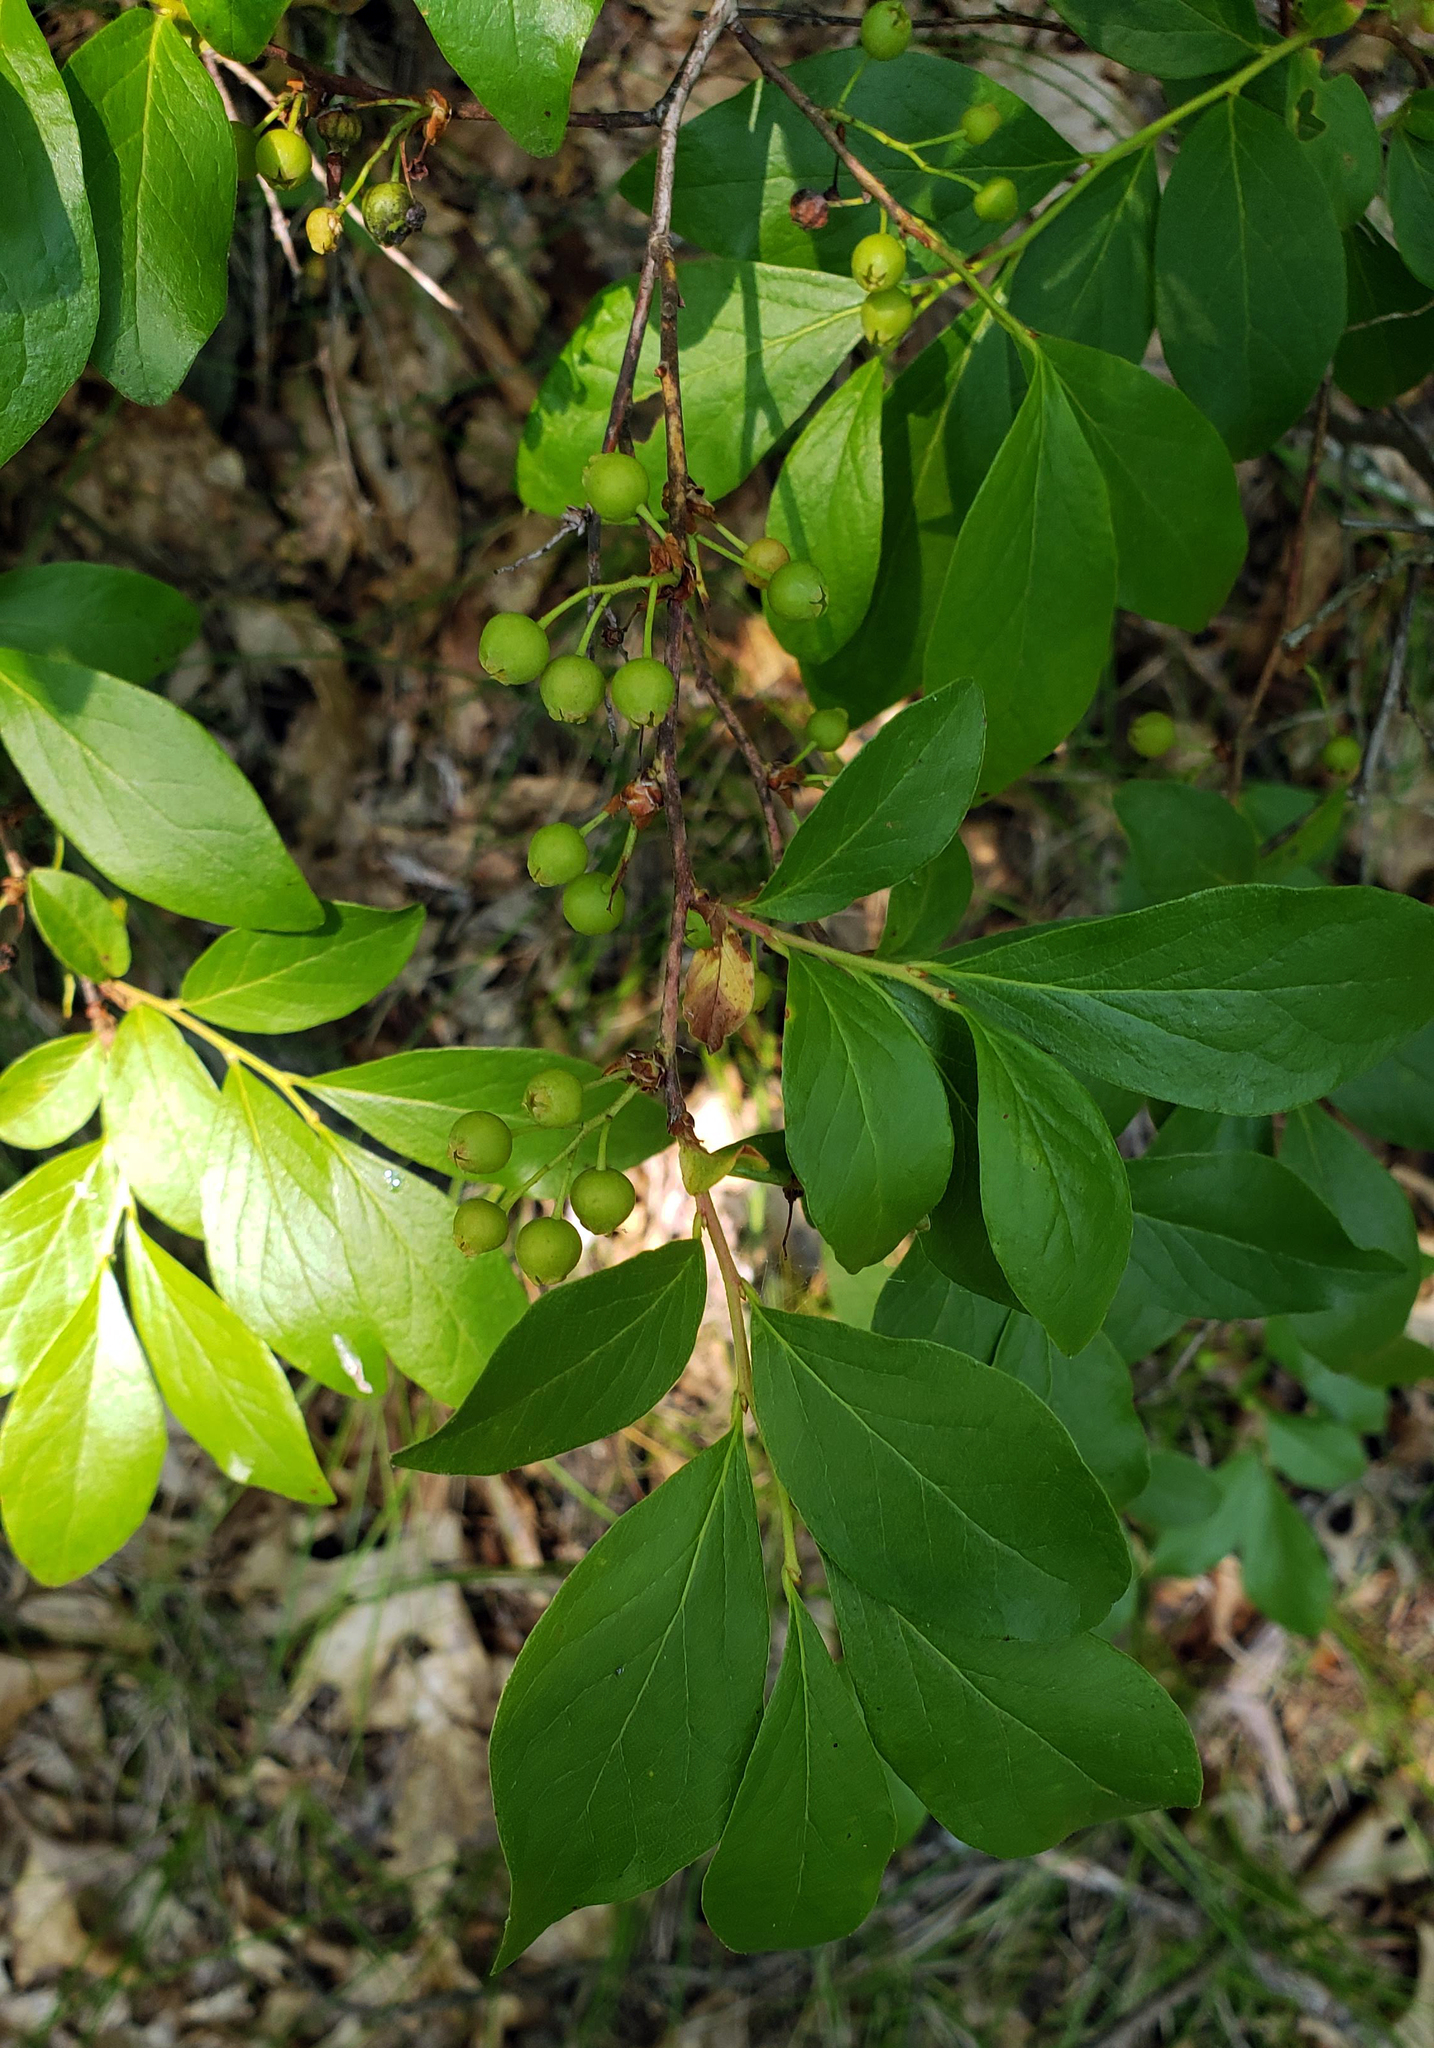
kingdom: Plantae
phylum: Tracheophyta
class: Magnoliopsida
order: Ericales
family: Ericaceae
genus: Gaylussacia
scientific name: Gaylussacia baccata
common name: Black huckleberry
